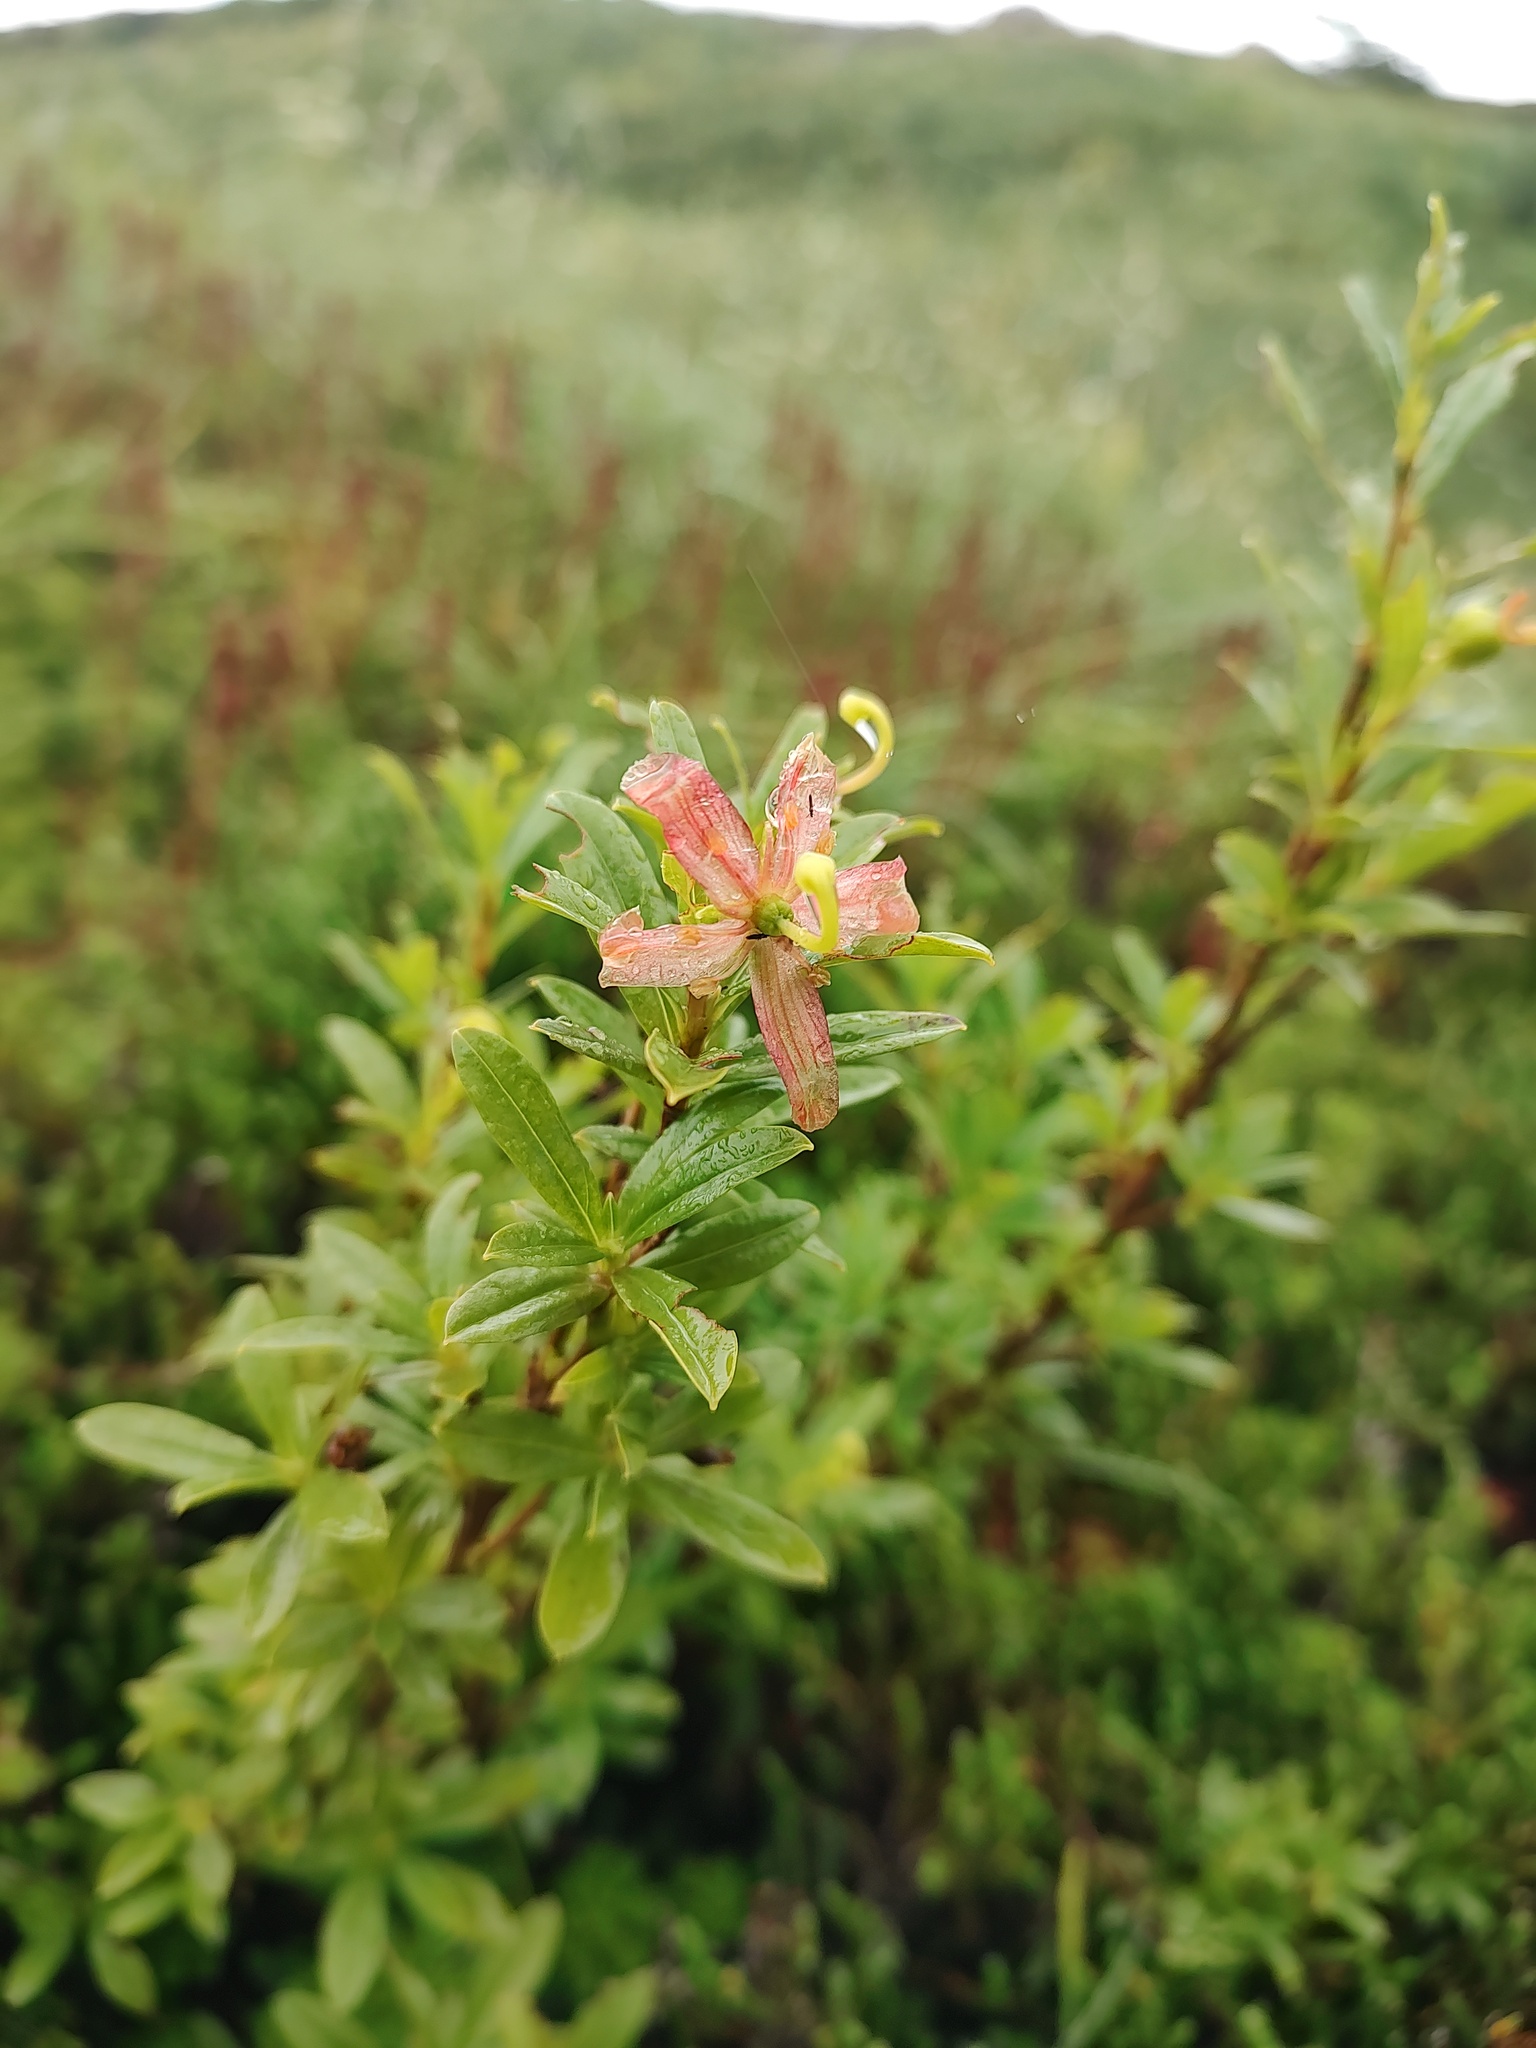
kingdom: Plantae
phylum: Tracheophyta
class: Magnoliopsida
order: Ericales
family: Ericaceae
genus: Elliottia
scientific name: Elliottia pyroliflora
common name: Copperbush
